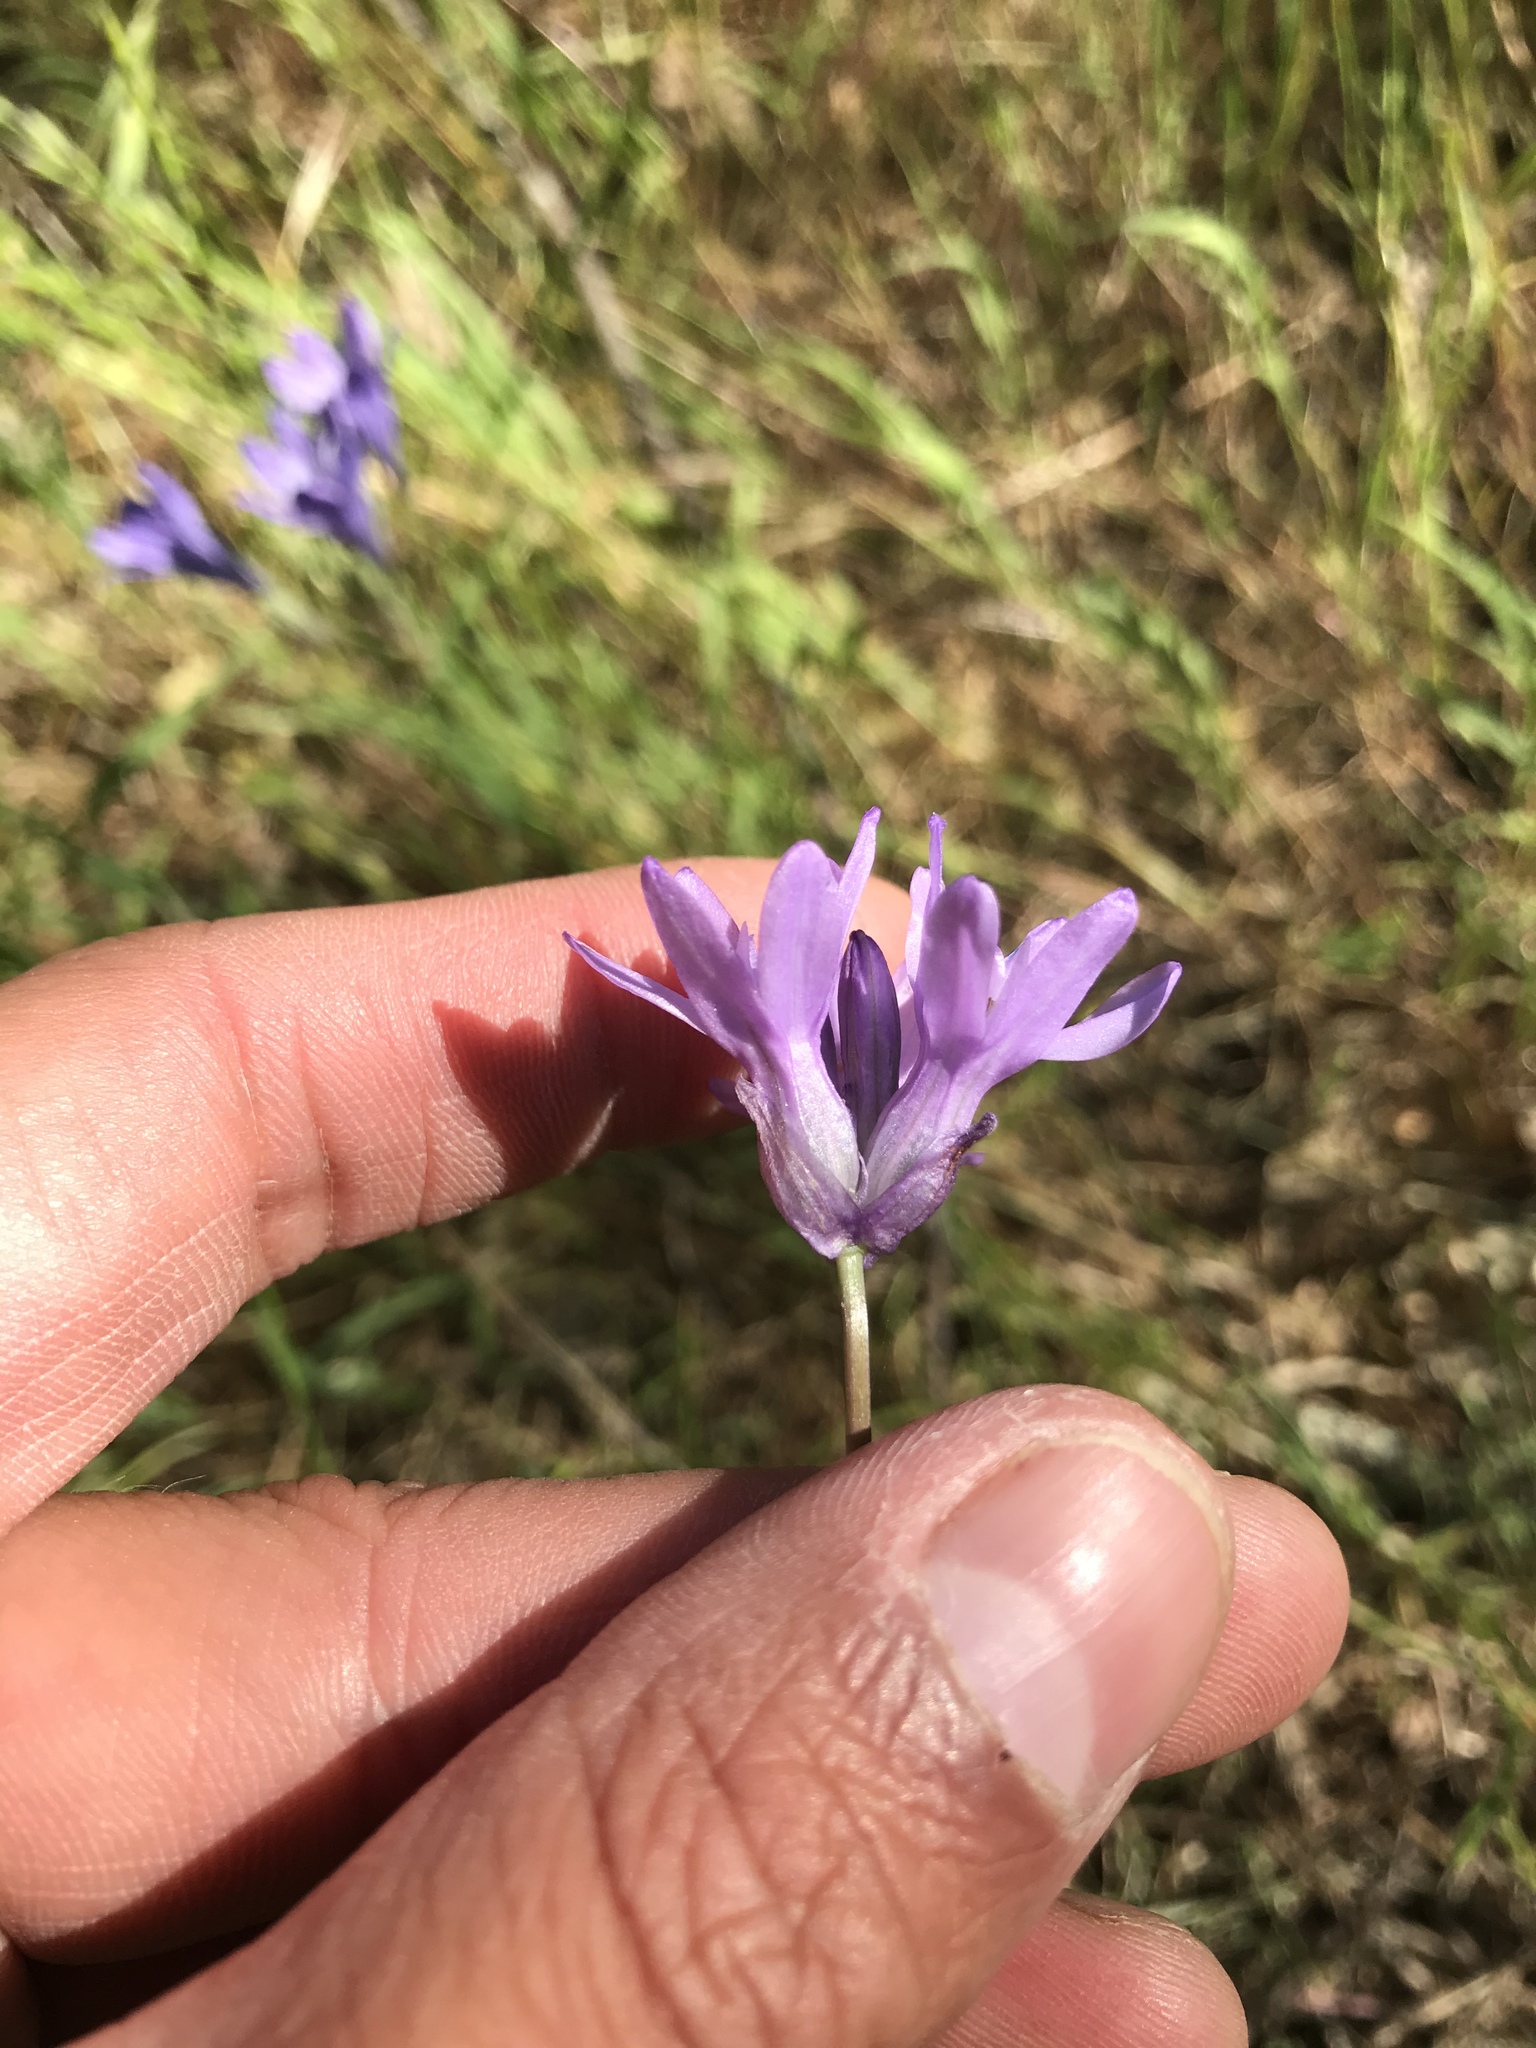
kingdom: Plantae
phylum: Tracheophyta
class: Liliopsida
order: Asparagales
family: Asparagaceae
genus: Dichelostemma
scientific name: Dichelostemma congestum
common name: Fork-tooth ookow
